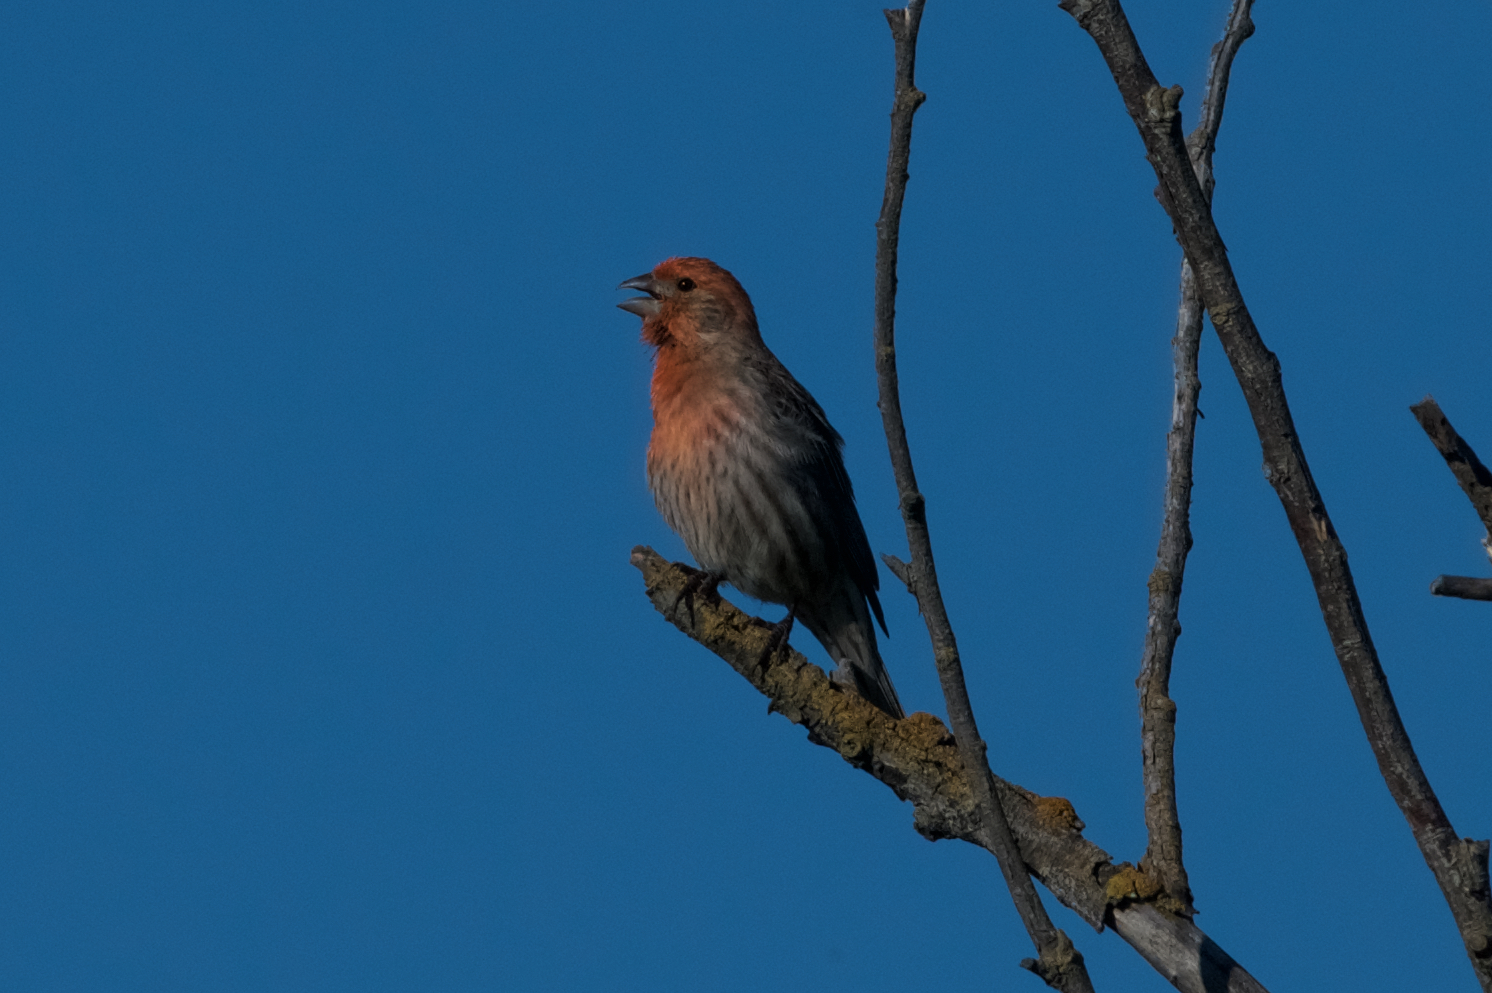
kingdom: Animalia
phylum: Chordata
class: Aves
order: Passeriformes
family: Fringillidae
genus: Haemorhous
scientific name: Haemorhous mexicanus
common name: House finch
